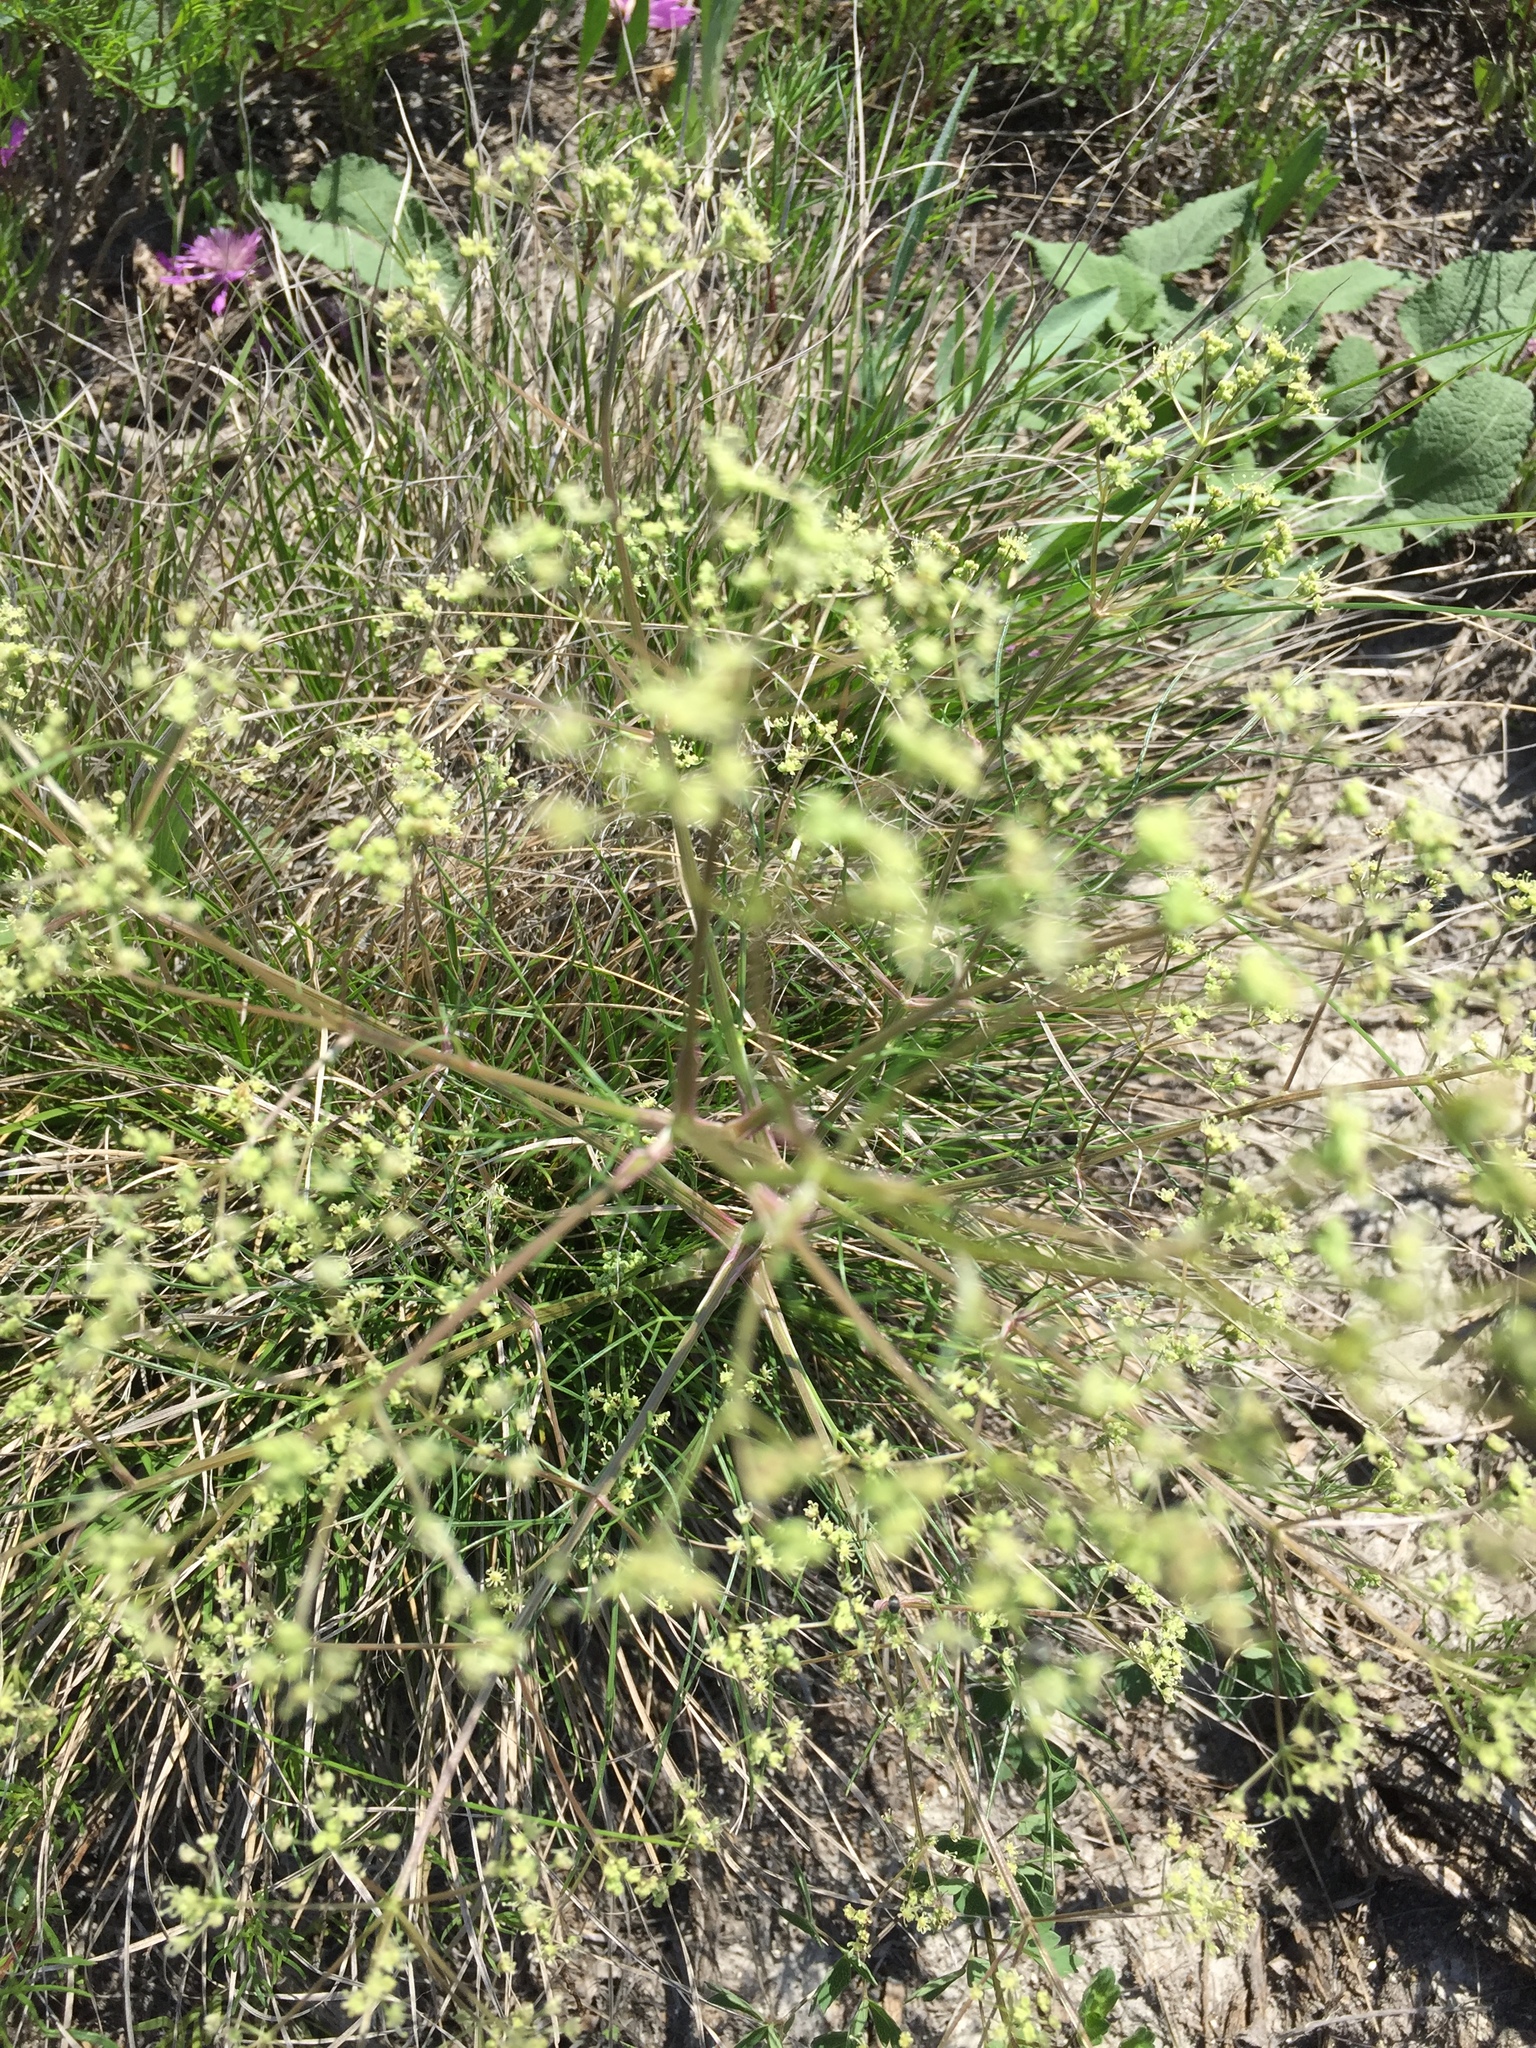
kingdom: Plantae
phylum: Tracheophyta
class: Magnoliopsida
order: Apiales
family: Apiaceae
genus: Trinia
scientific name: Trinia multicaulis
